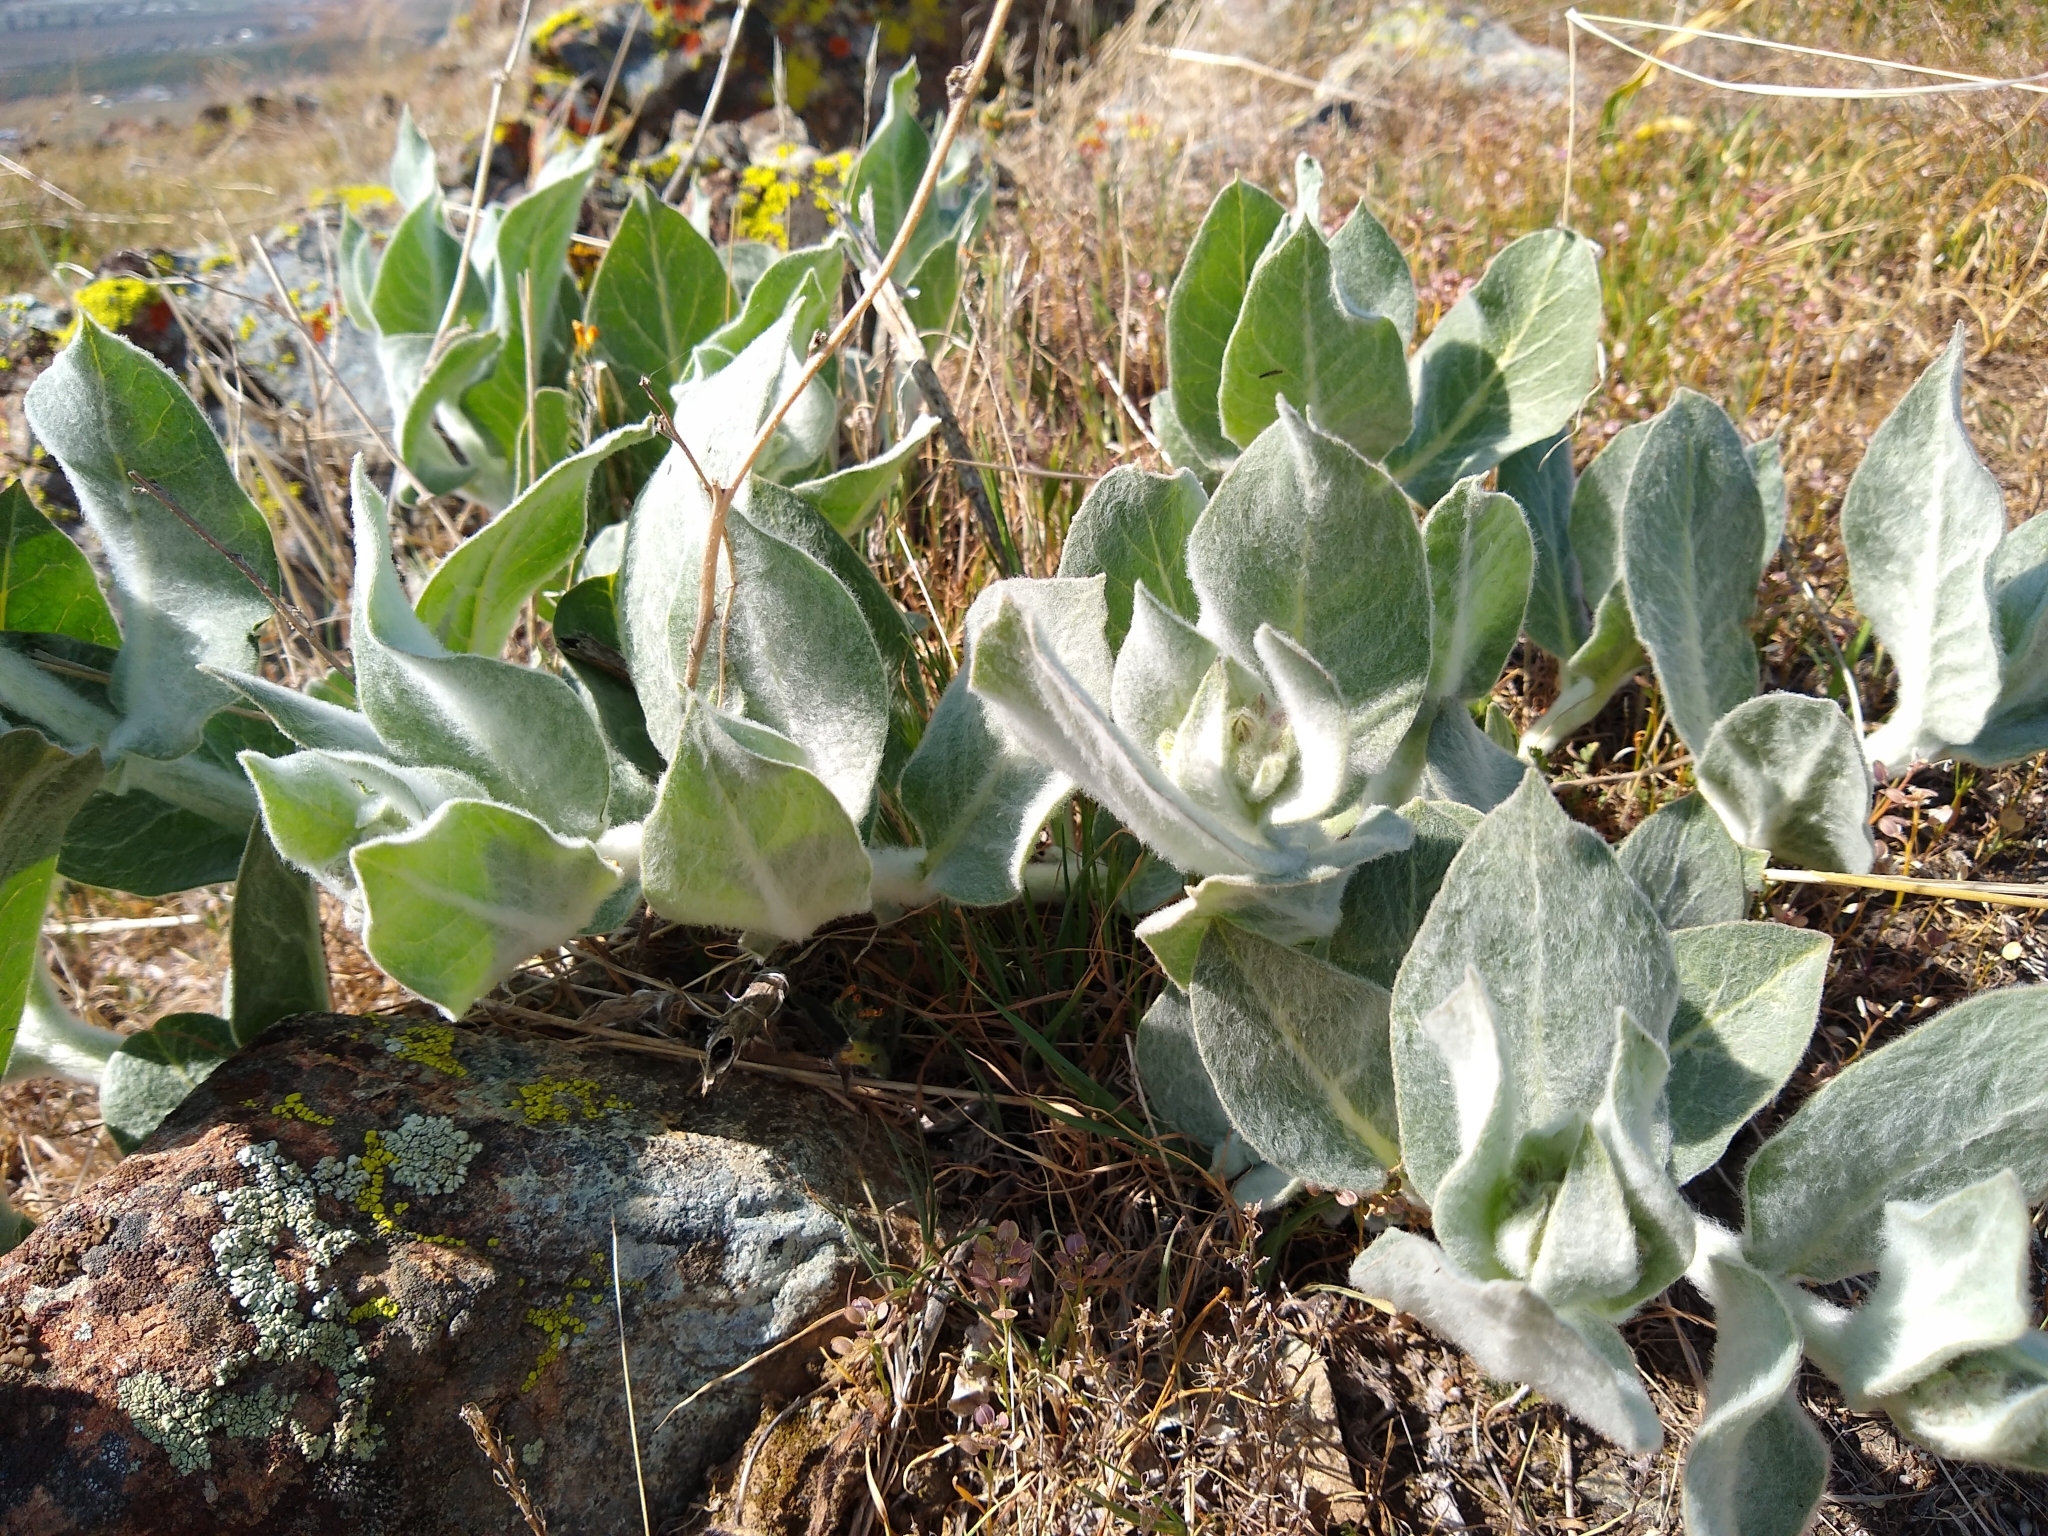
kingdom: Plantae
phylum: Tracheophyta
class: Magnoliopsida
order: Gentianales
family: Apocynaceae
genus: Asclepias
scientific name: Asclepias californica
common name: California milkweed
